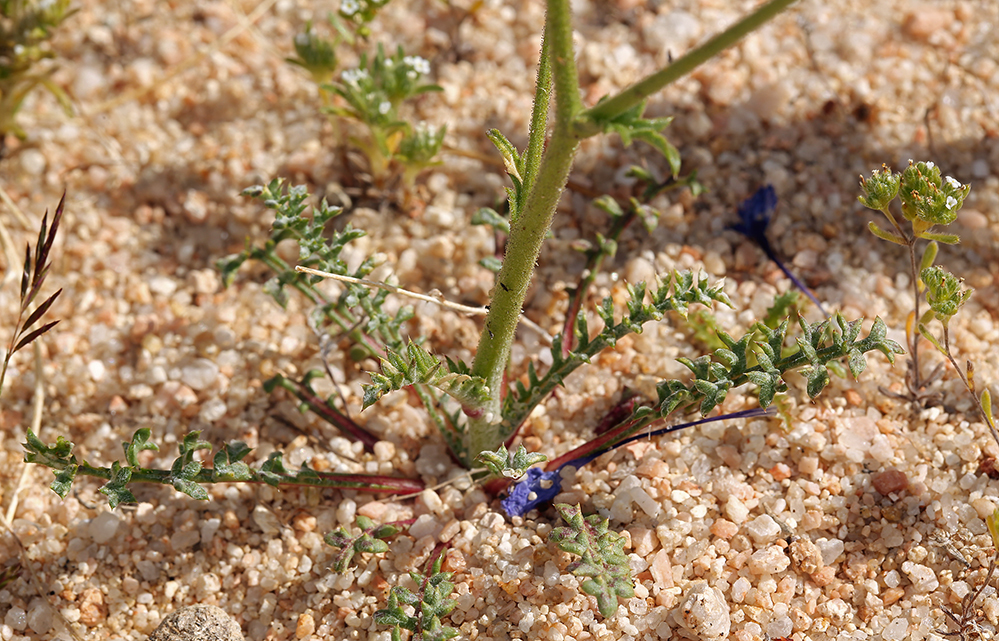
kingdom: Plantae
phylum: Tracheophyta
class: Magnoliopsida
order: Ericales
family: Polemoniaceae
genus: Gilia
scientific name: Gilia cana
